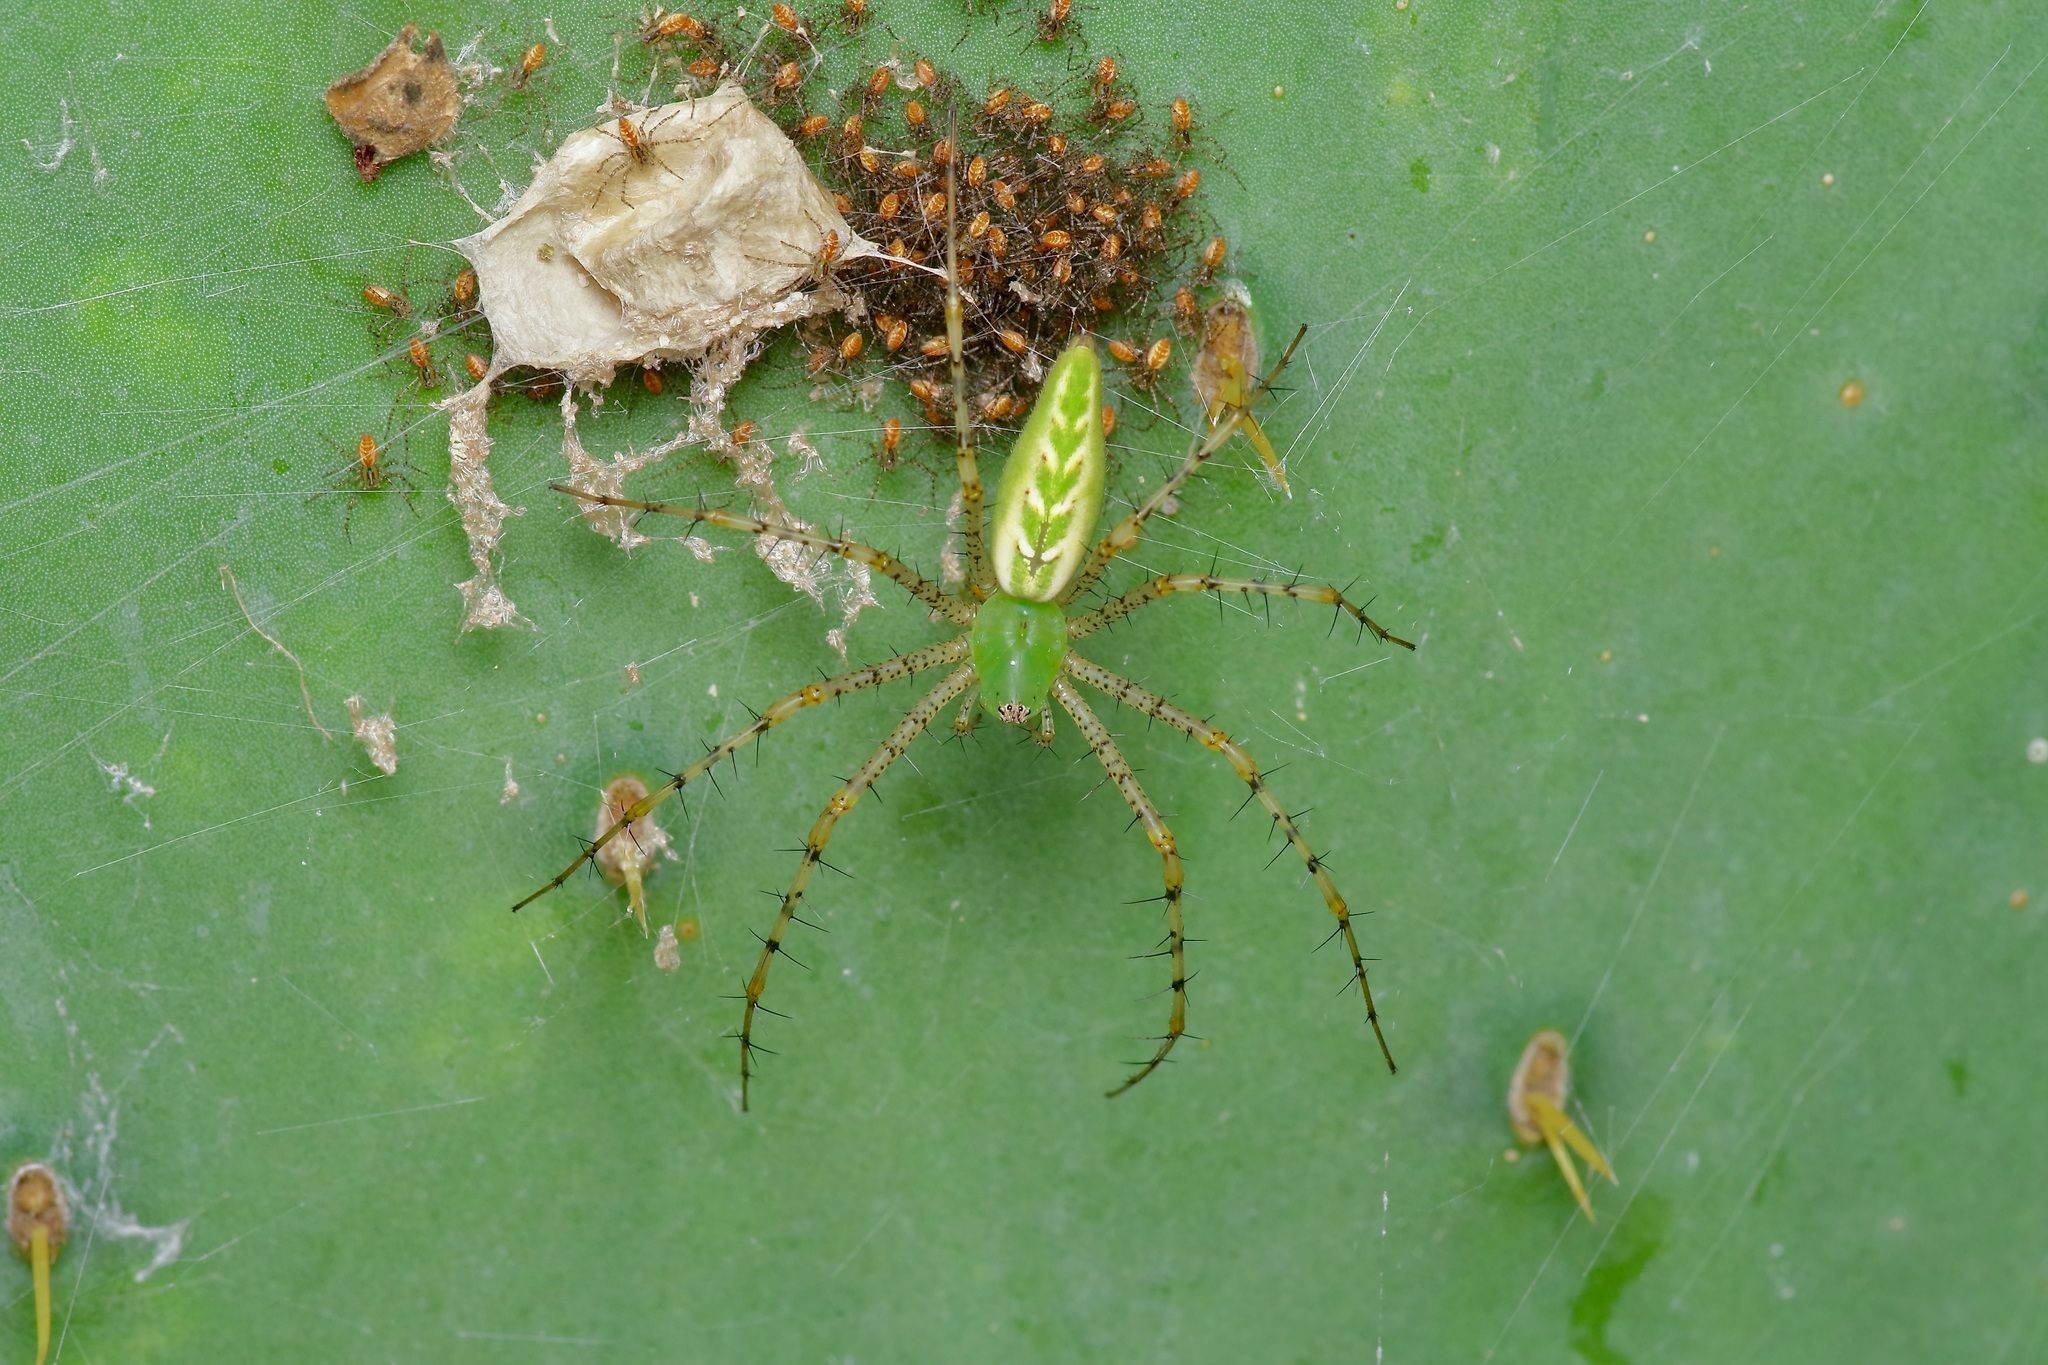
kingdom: Animalia
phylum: Arthropoda
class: Arachnida
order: Araneae
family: Oxyopidae
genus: Peucetia
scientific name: Peucetia viridans
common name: Lynx spiders
